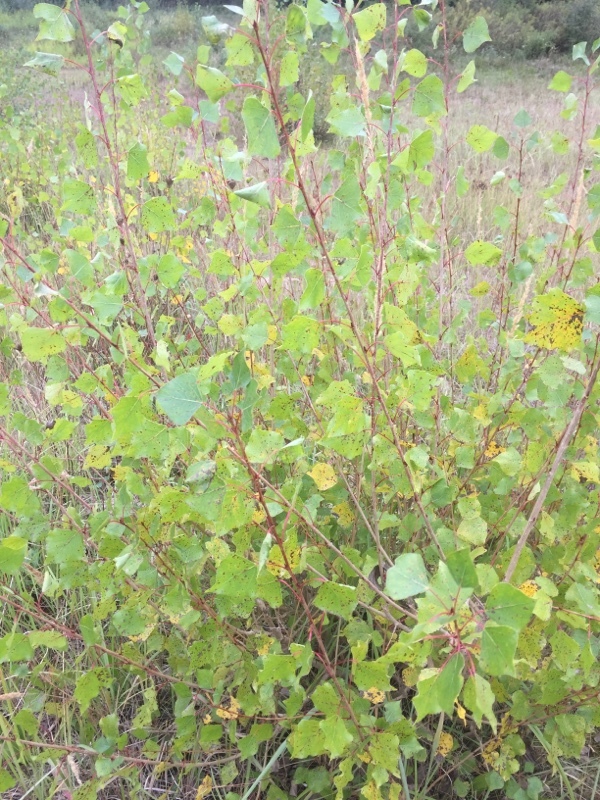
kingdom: Plantae
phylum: Tracheophyta
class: Magnoliopsida
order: Malpighiales
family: Salicaceae
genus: Populus
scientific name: Populus nigra
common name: Black poplar
